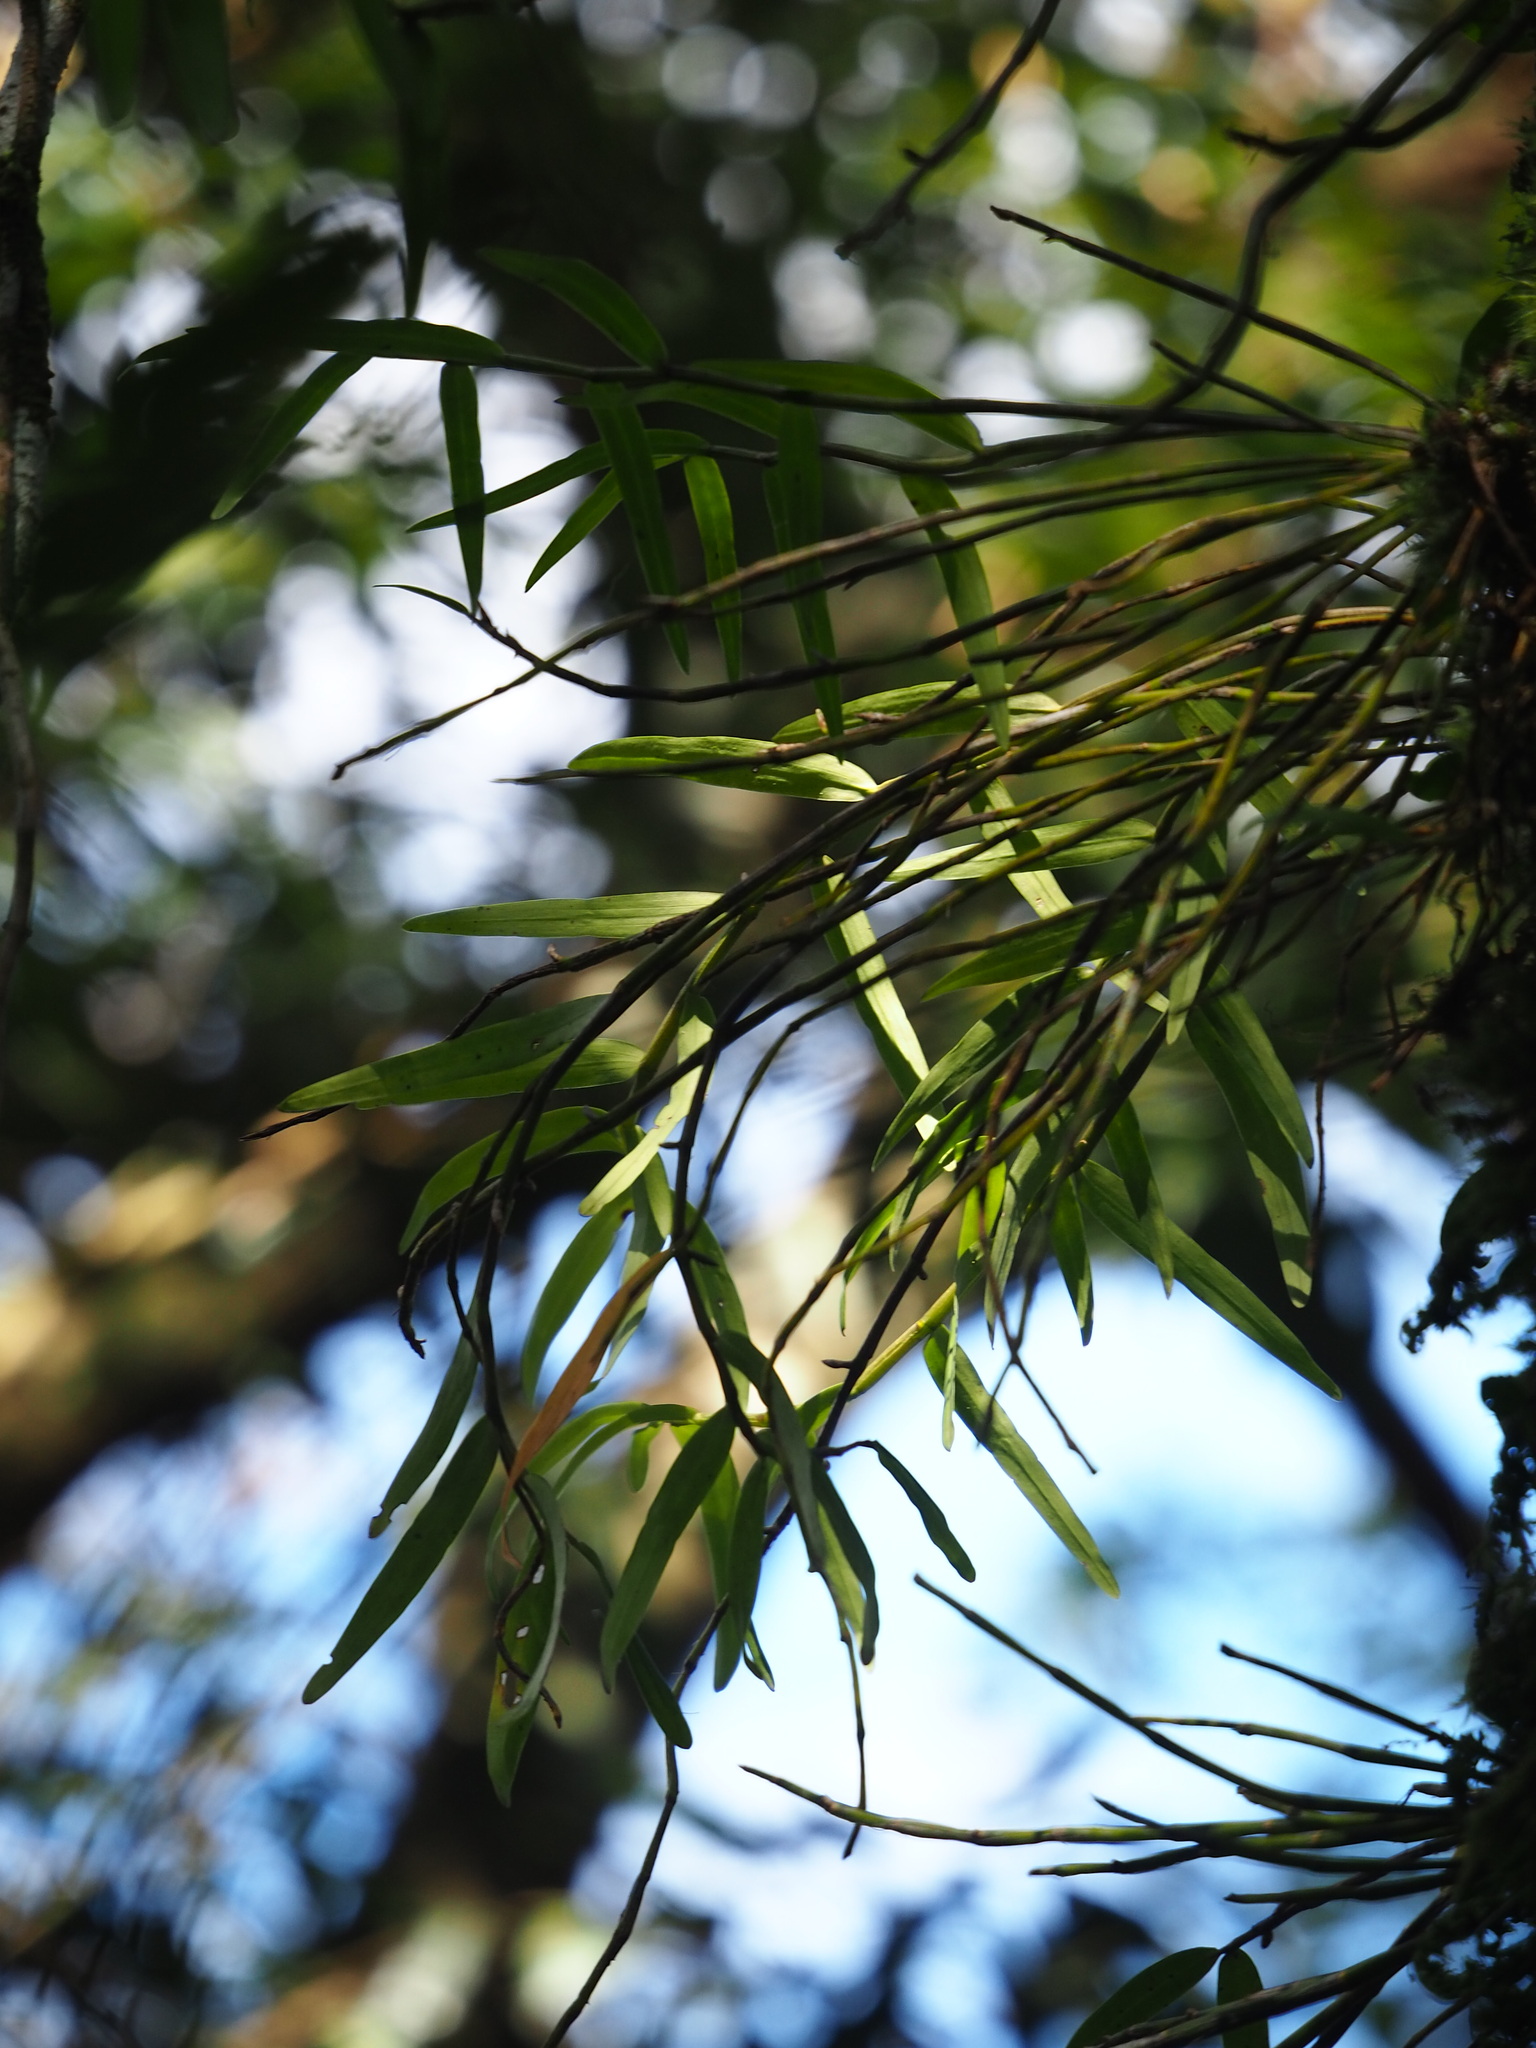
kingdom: Plantae
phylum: Tracheophyta
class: Liliopsida
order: Asparagales
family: Orchidaceae
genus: Dendrobium
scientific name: Dendrobium moniliforme
